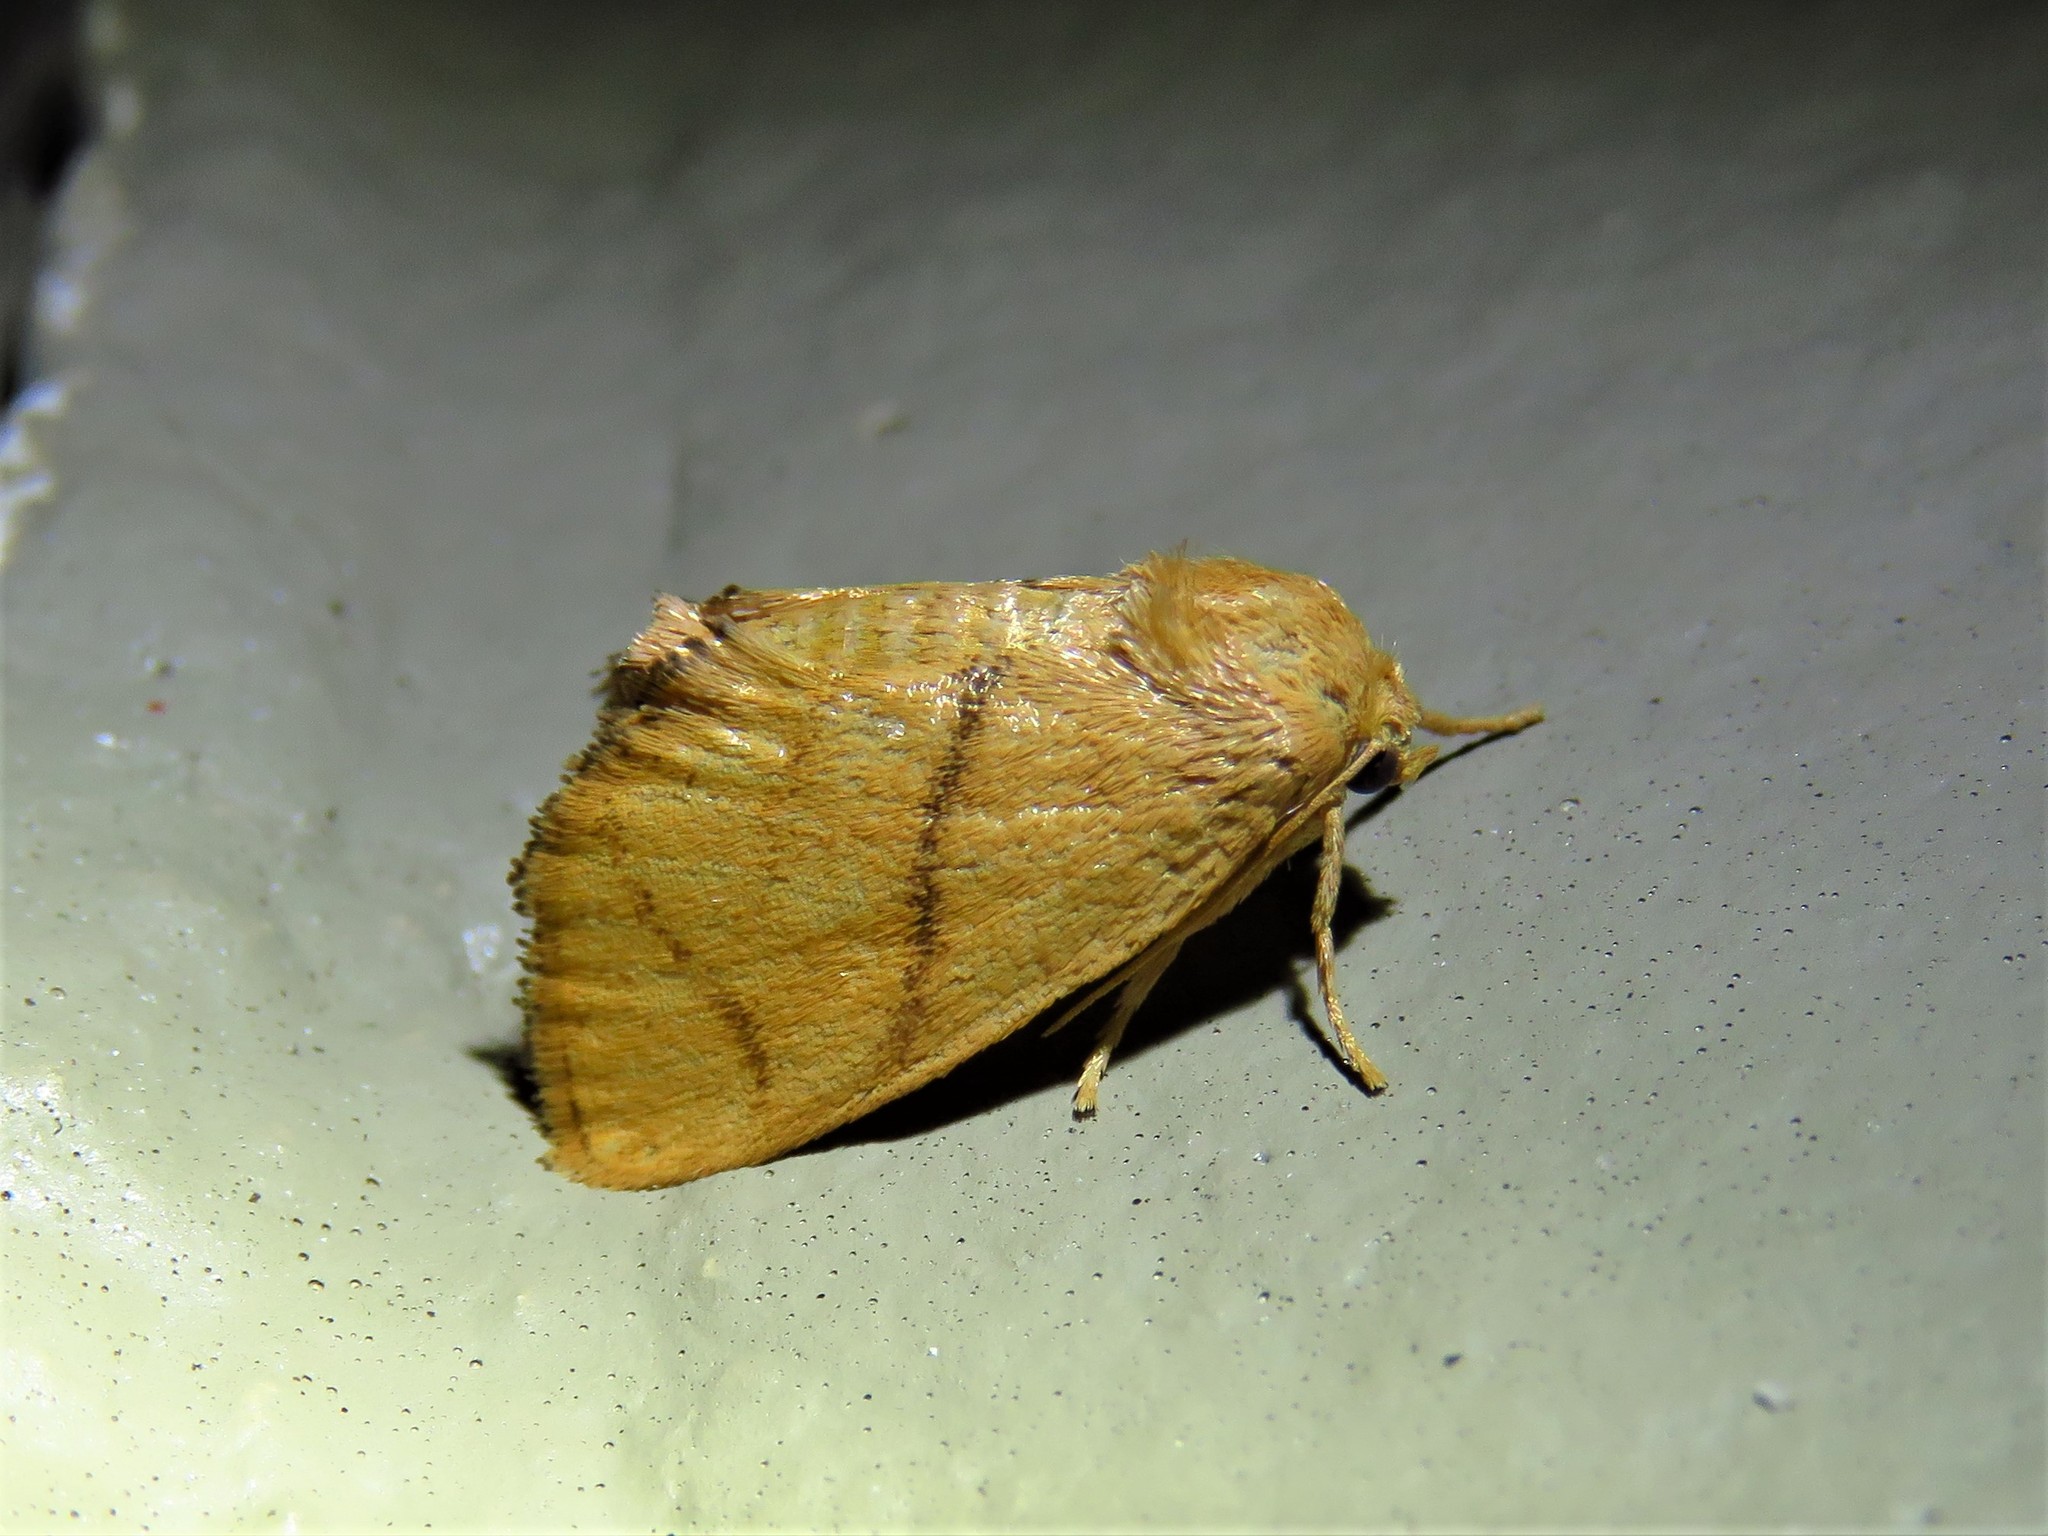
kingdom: Animalia
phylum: Arthropoda
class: Insecta
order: Lepidoptera
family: Limacodidae
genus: Apoda
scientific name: Apoda y-inversa
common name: Yellow-collared slug moth
